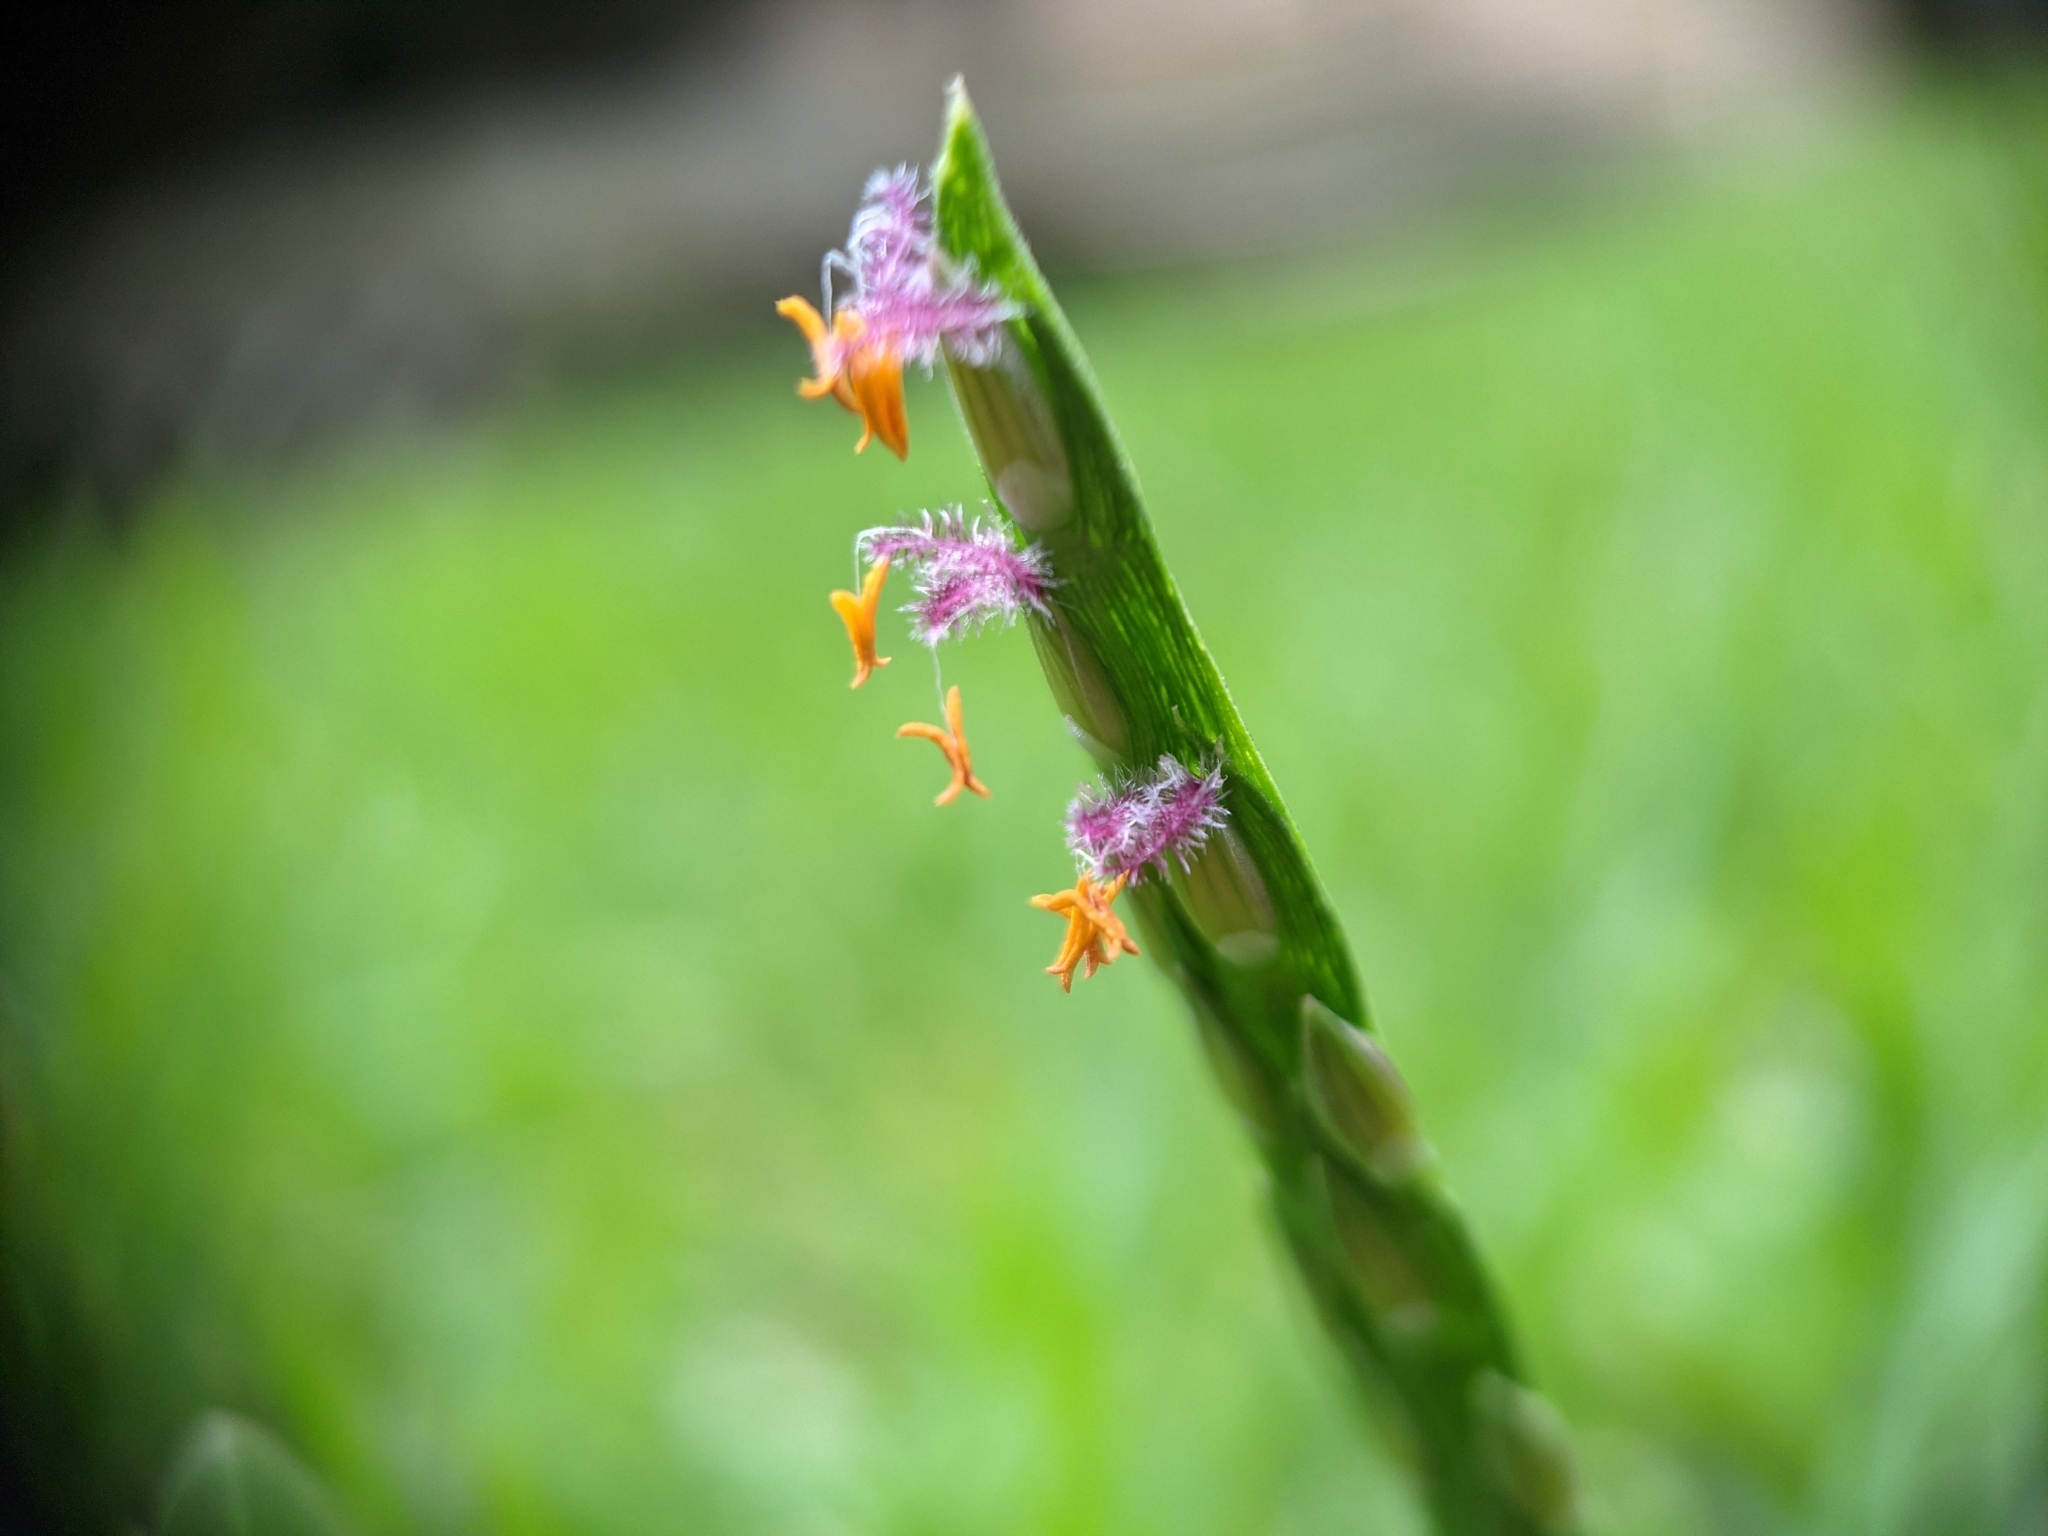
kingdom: Plantae
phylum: Tracheophyta
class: Liliopsida
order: Poales
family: Poaceae
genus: Stenotaphrum
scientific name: Stenotaphrum secundatum
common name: St. augustine grass
